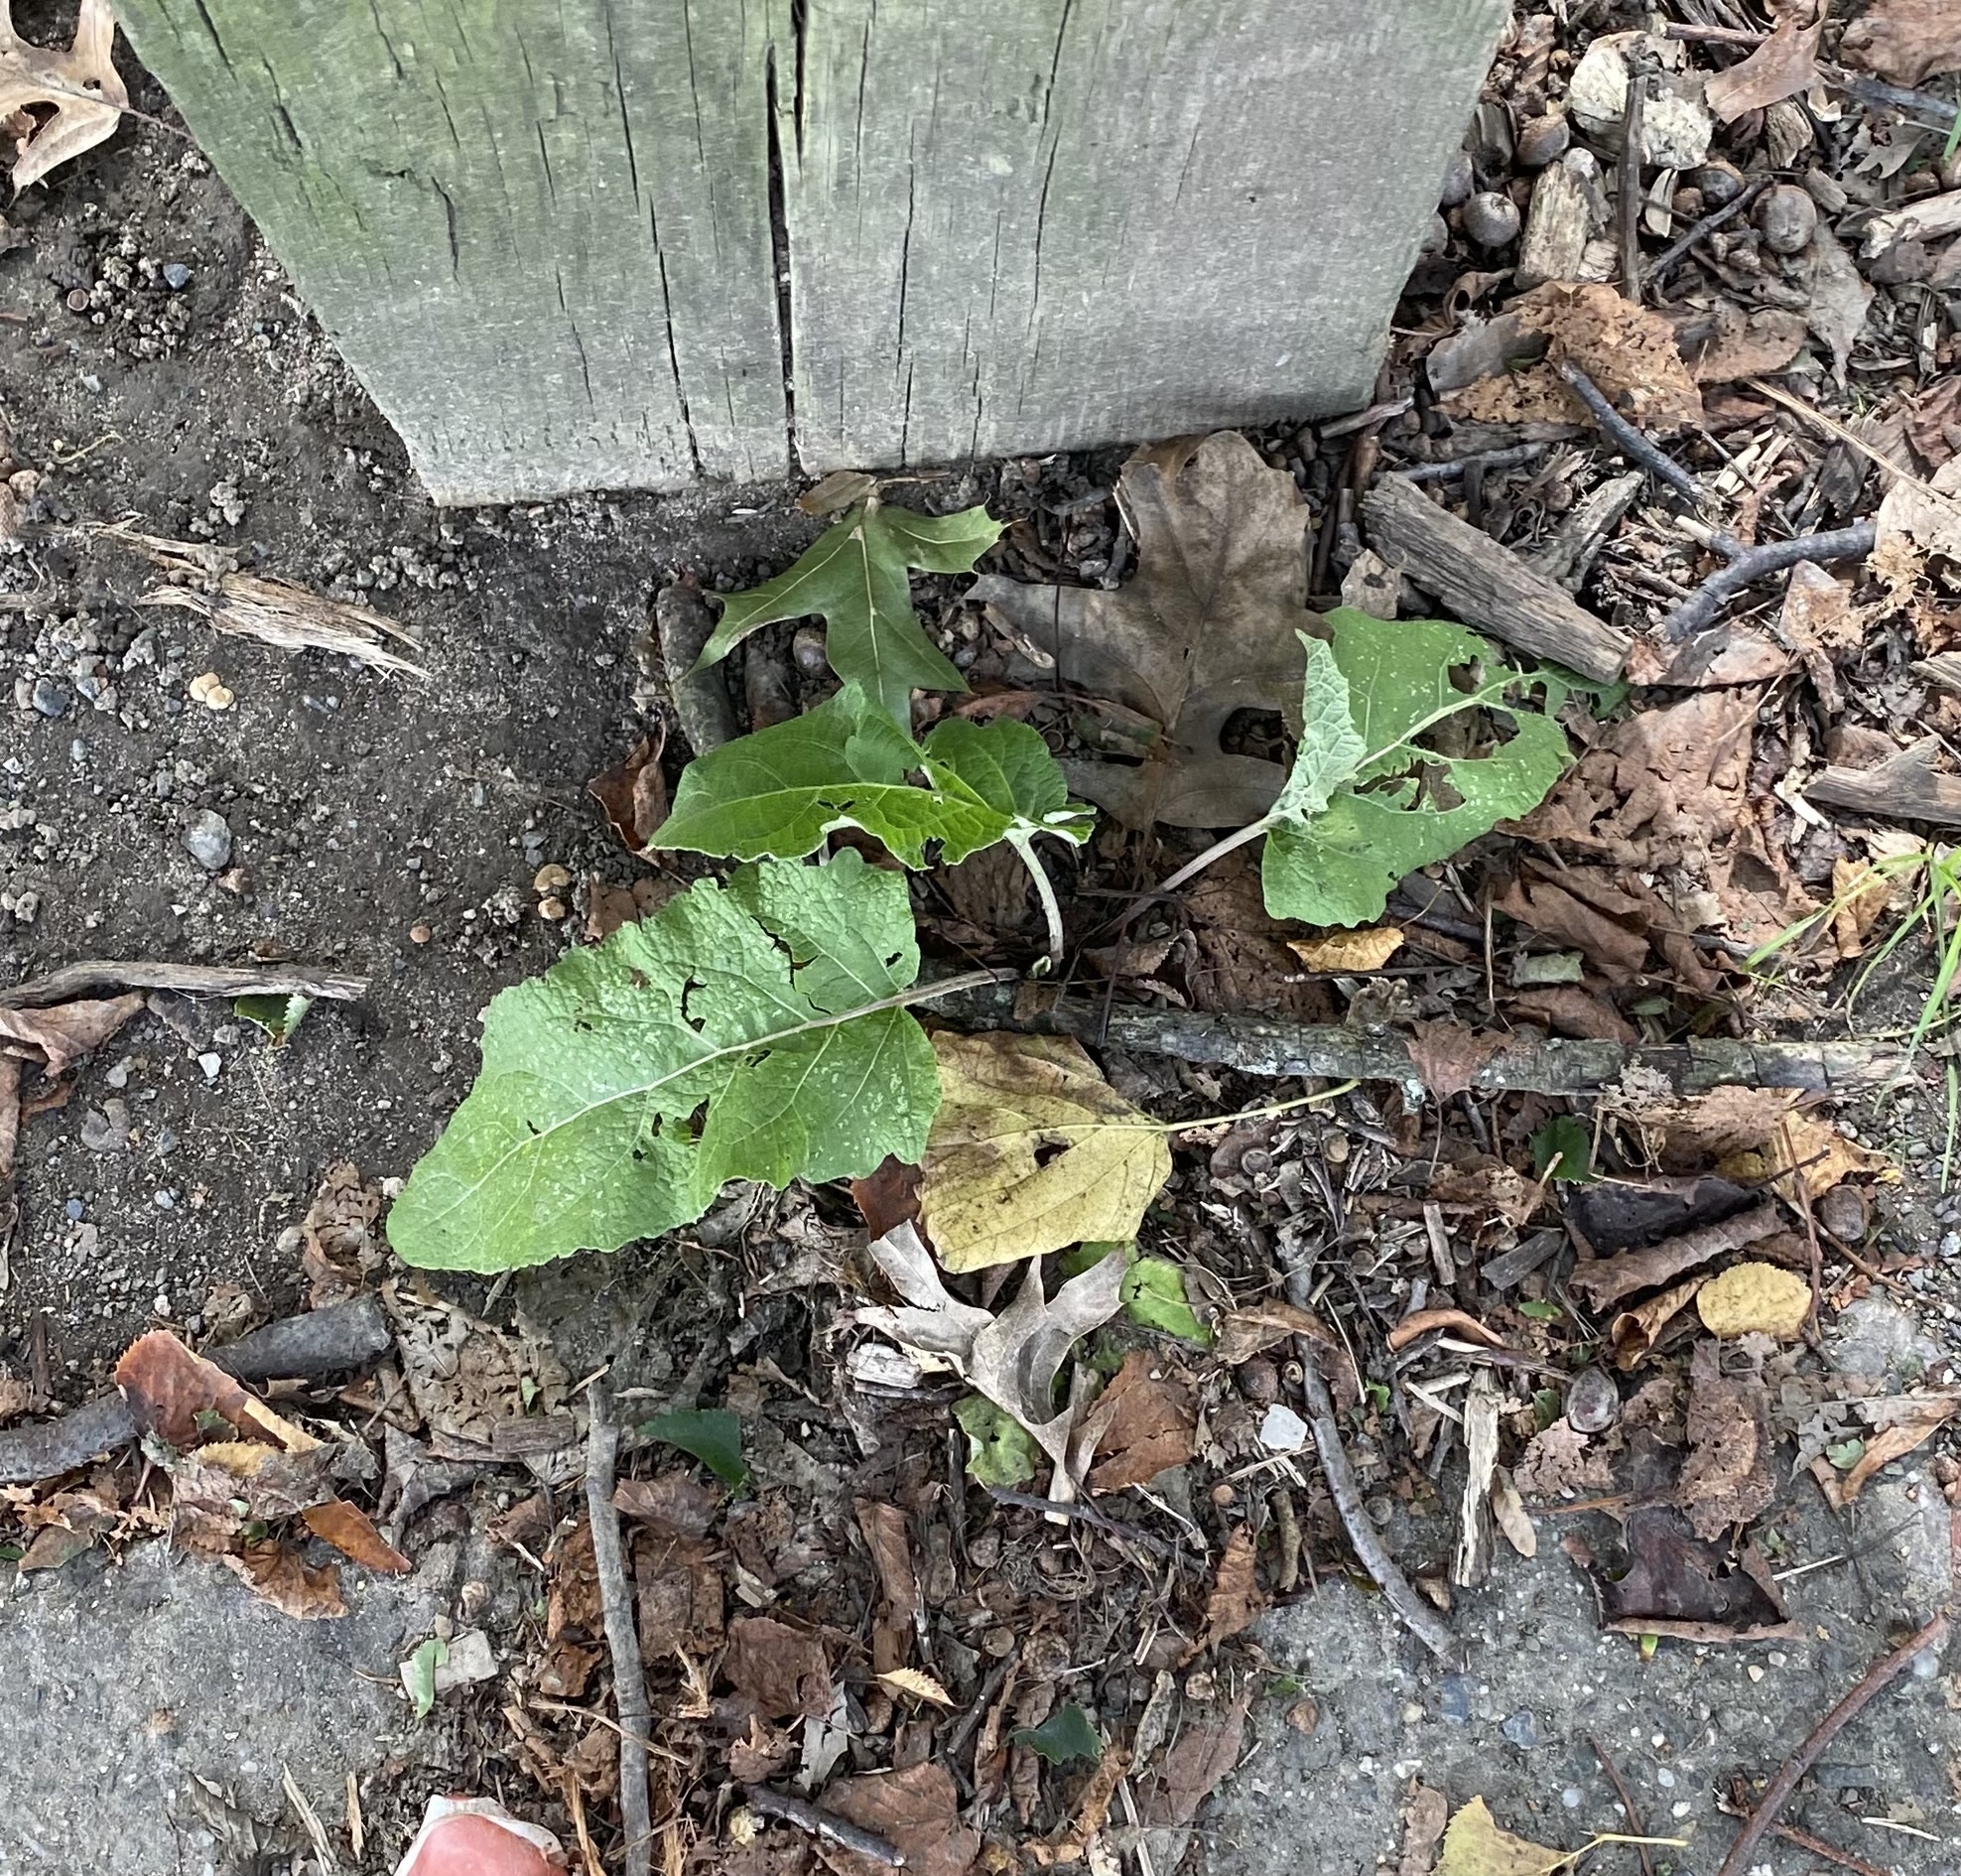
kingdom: Plantae
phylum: Tracheophyta
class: Magnoliopsida
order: Asterales
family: Asteraceae
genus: Arctium
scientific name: Arctium
